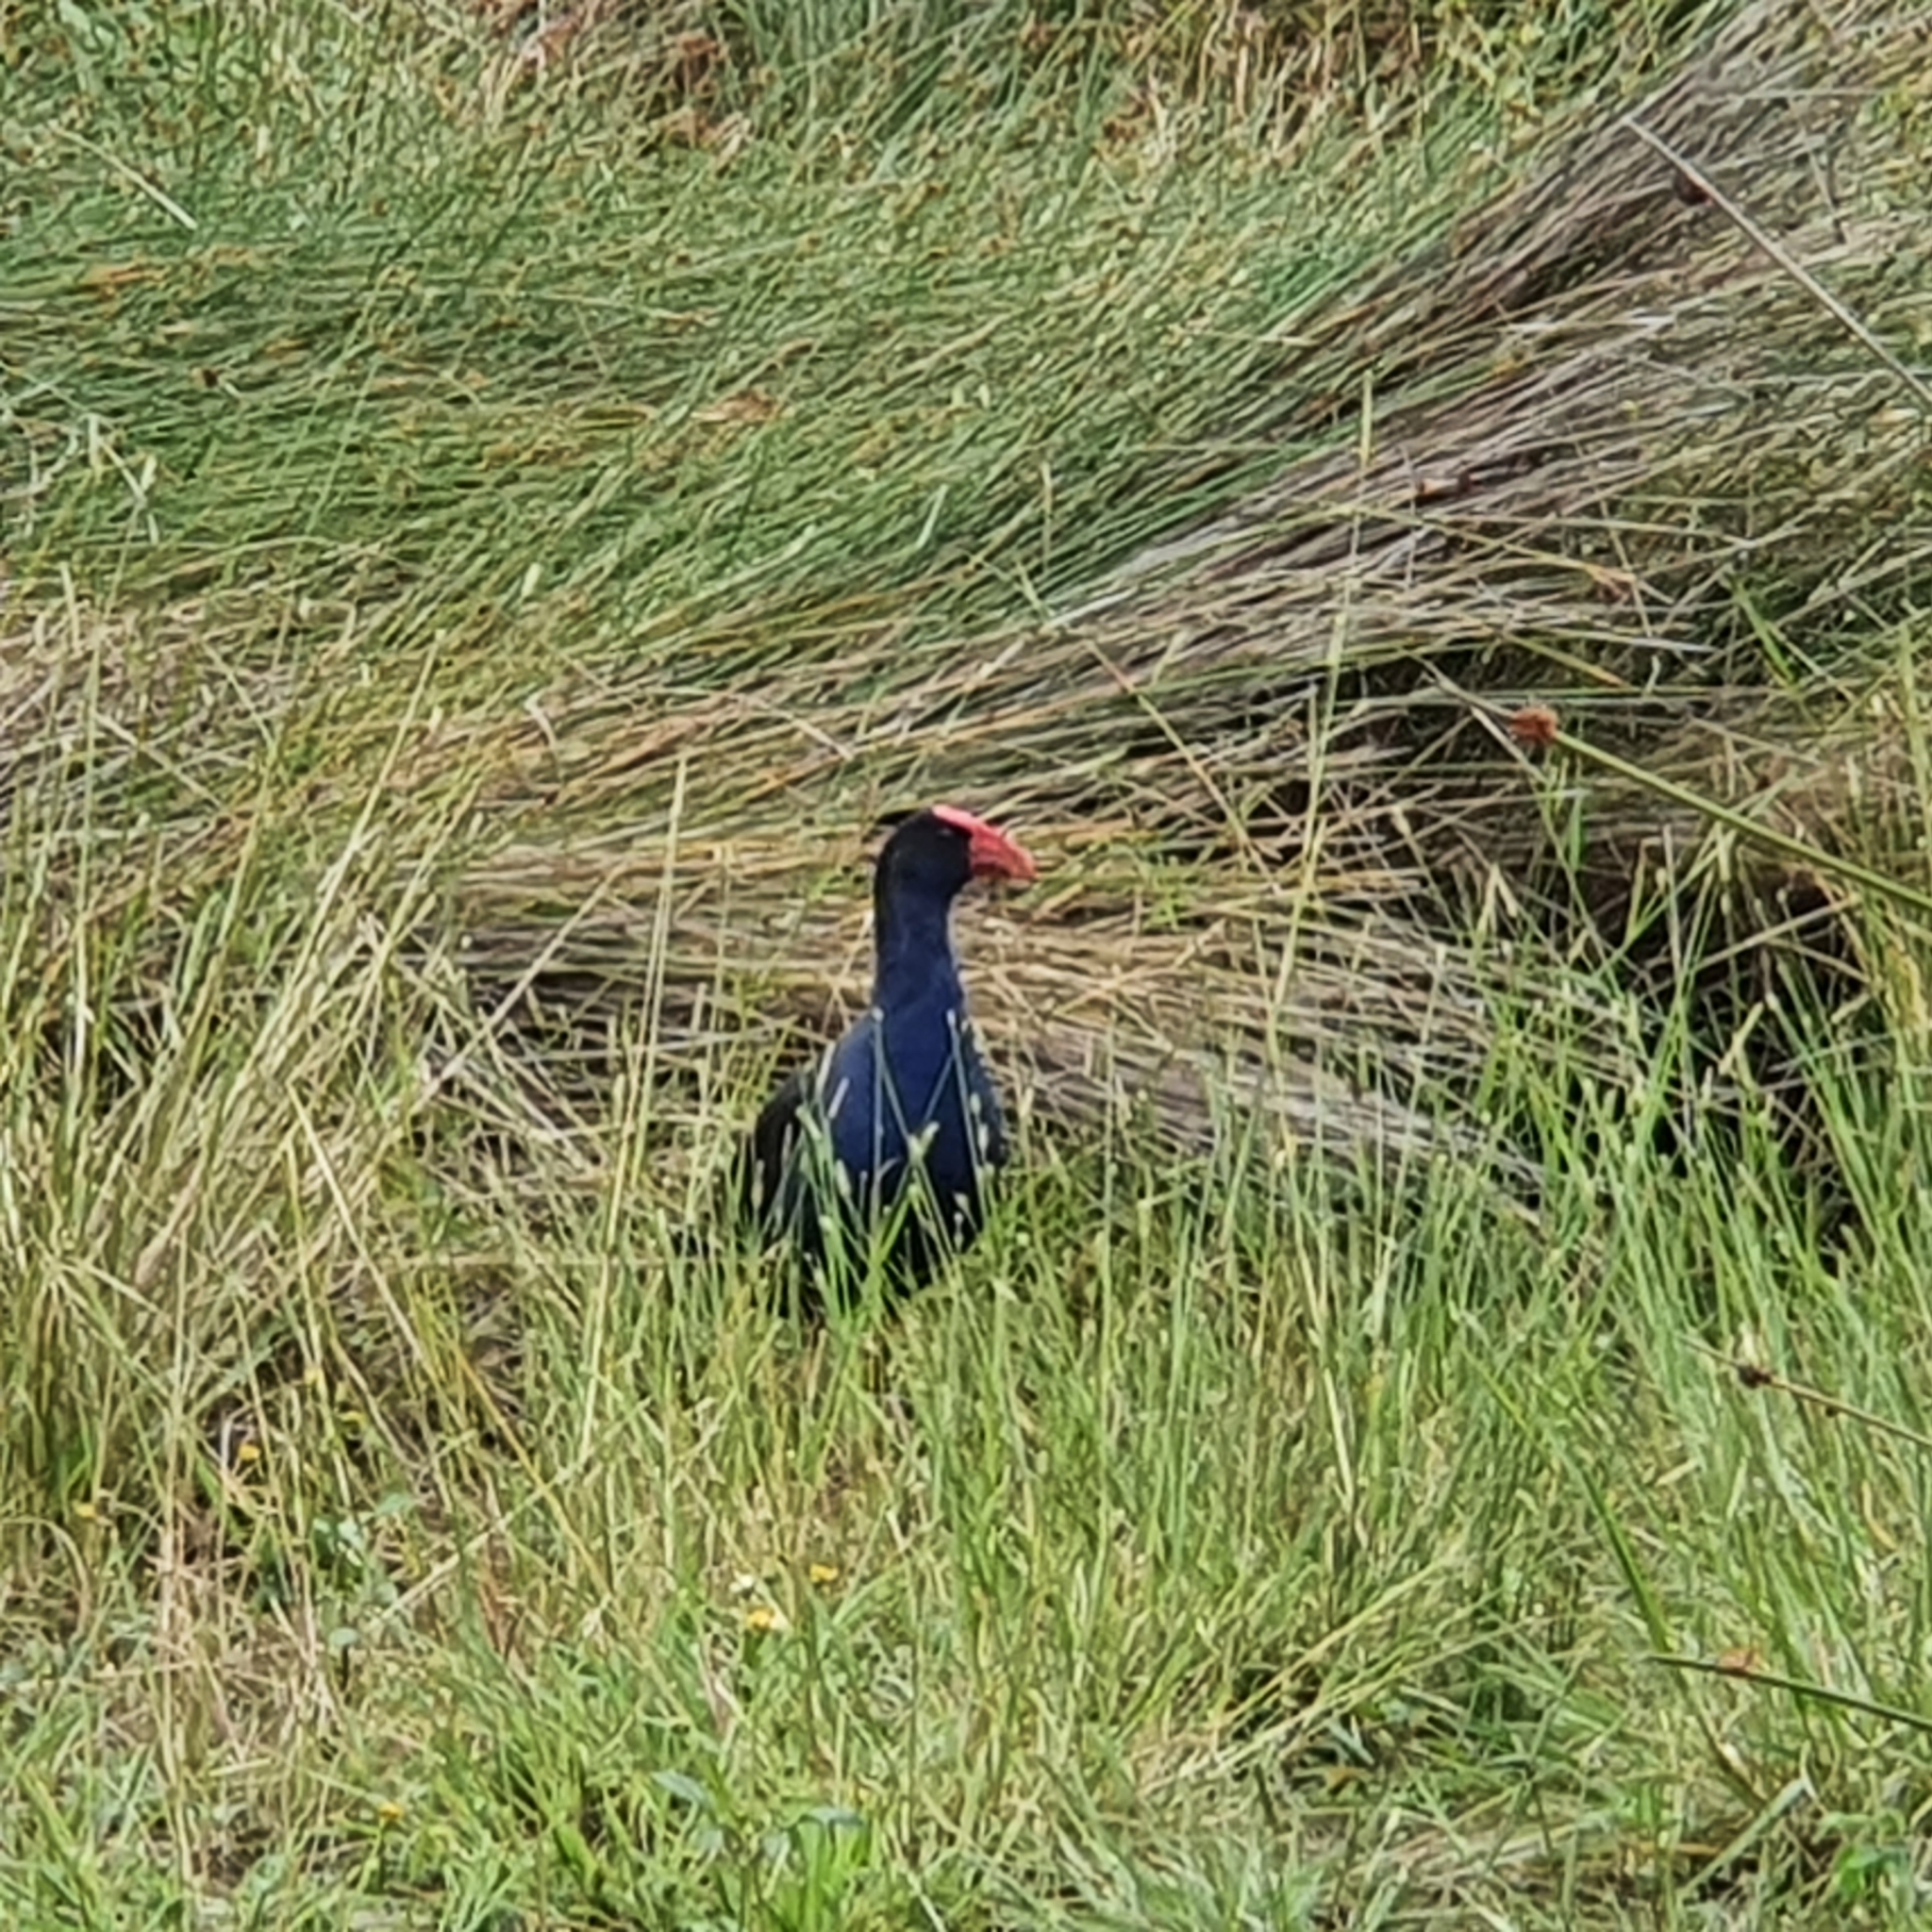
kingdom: Animalia
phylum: Chordata
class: Aves
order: Gruiformes
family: Rallidae
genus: Porphyrio
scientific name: Porphyrio melanotus
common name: Australasian swamphen
